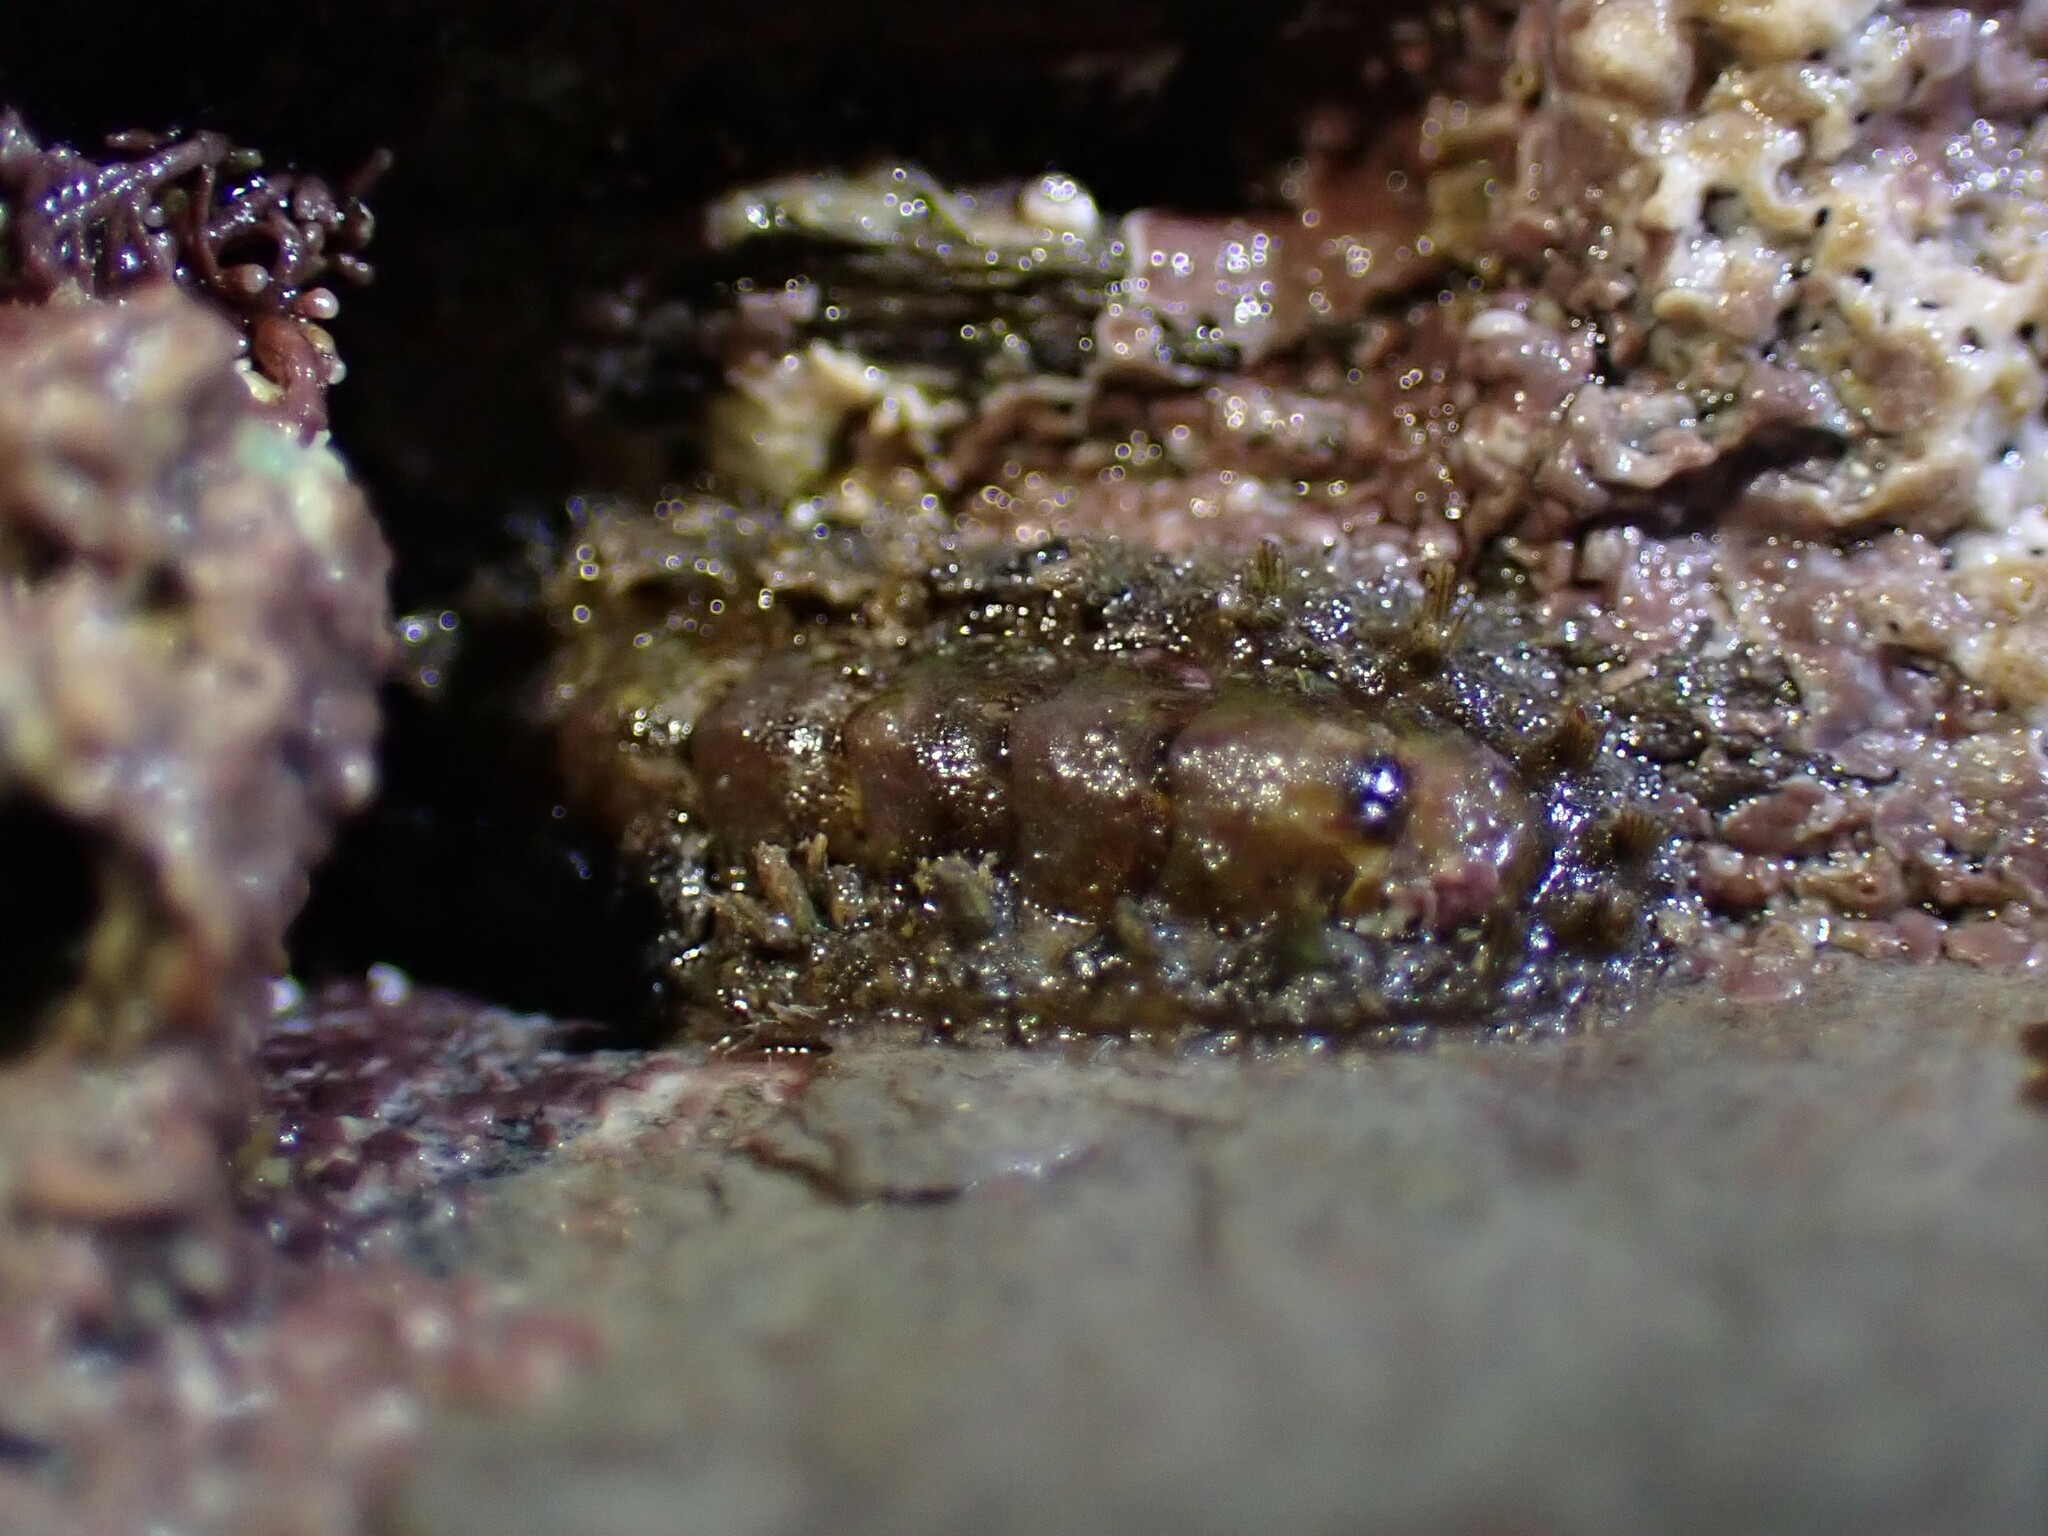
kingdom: Animalia
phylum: Mollusca
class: Polyplacophora
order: Chitonida
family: Acanthochitonidae
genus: Acanthochitona
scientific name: Acanthochitona crinita
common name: Bristly mail chiton
